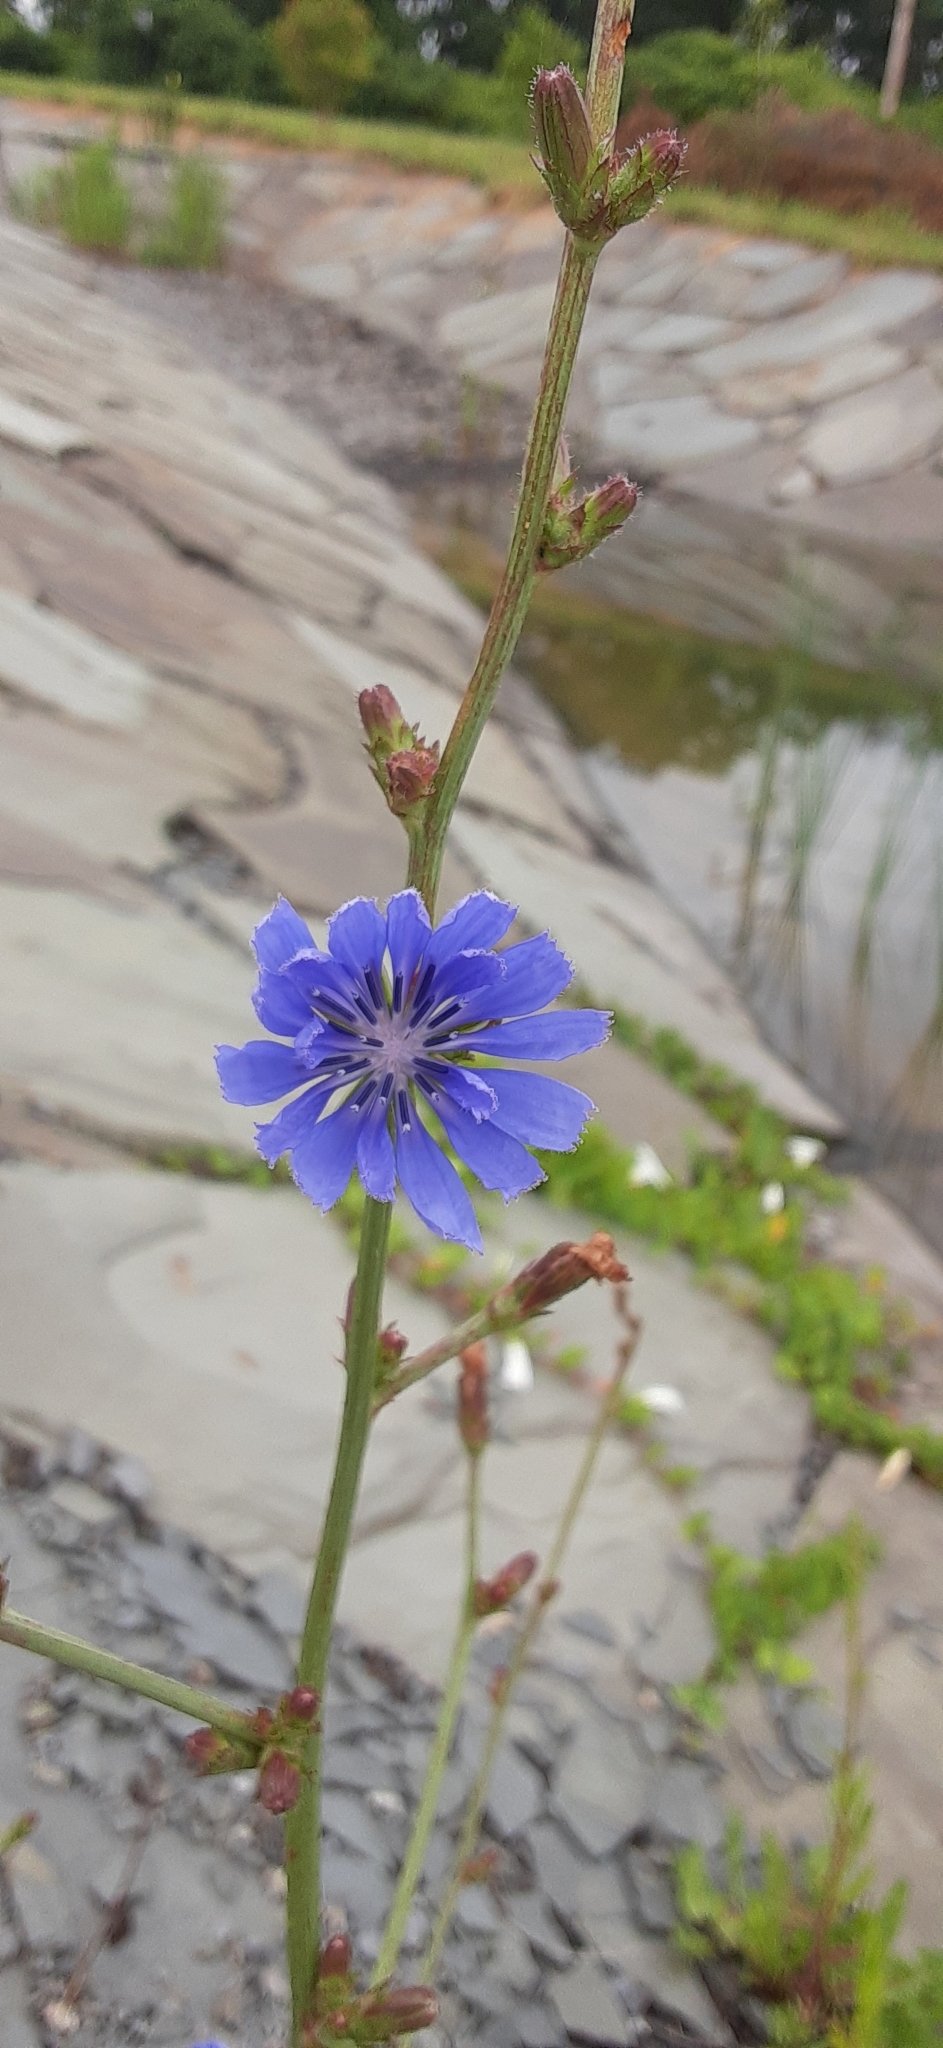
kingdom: Plantae
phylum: Tracheophyta
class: Magnoliopsida
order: Asterales
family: Asteraceae
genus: Cichorium
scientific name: Cichorium intybus
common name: Chicory
